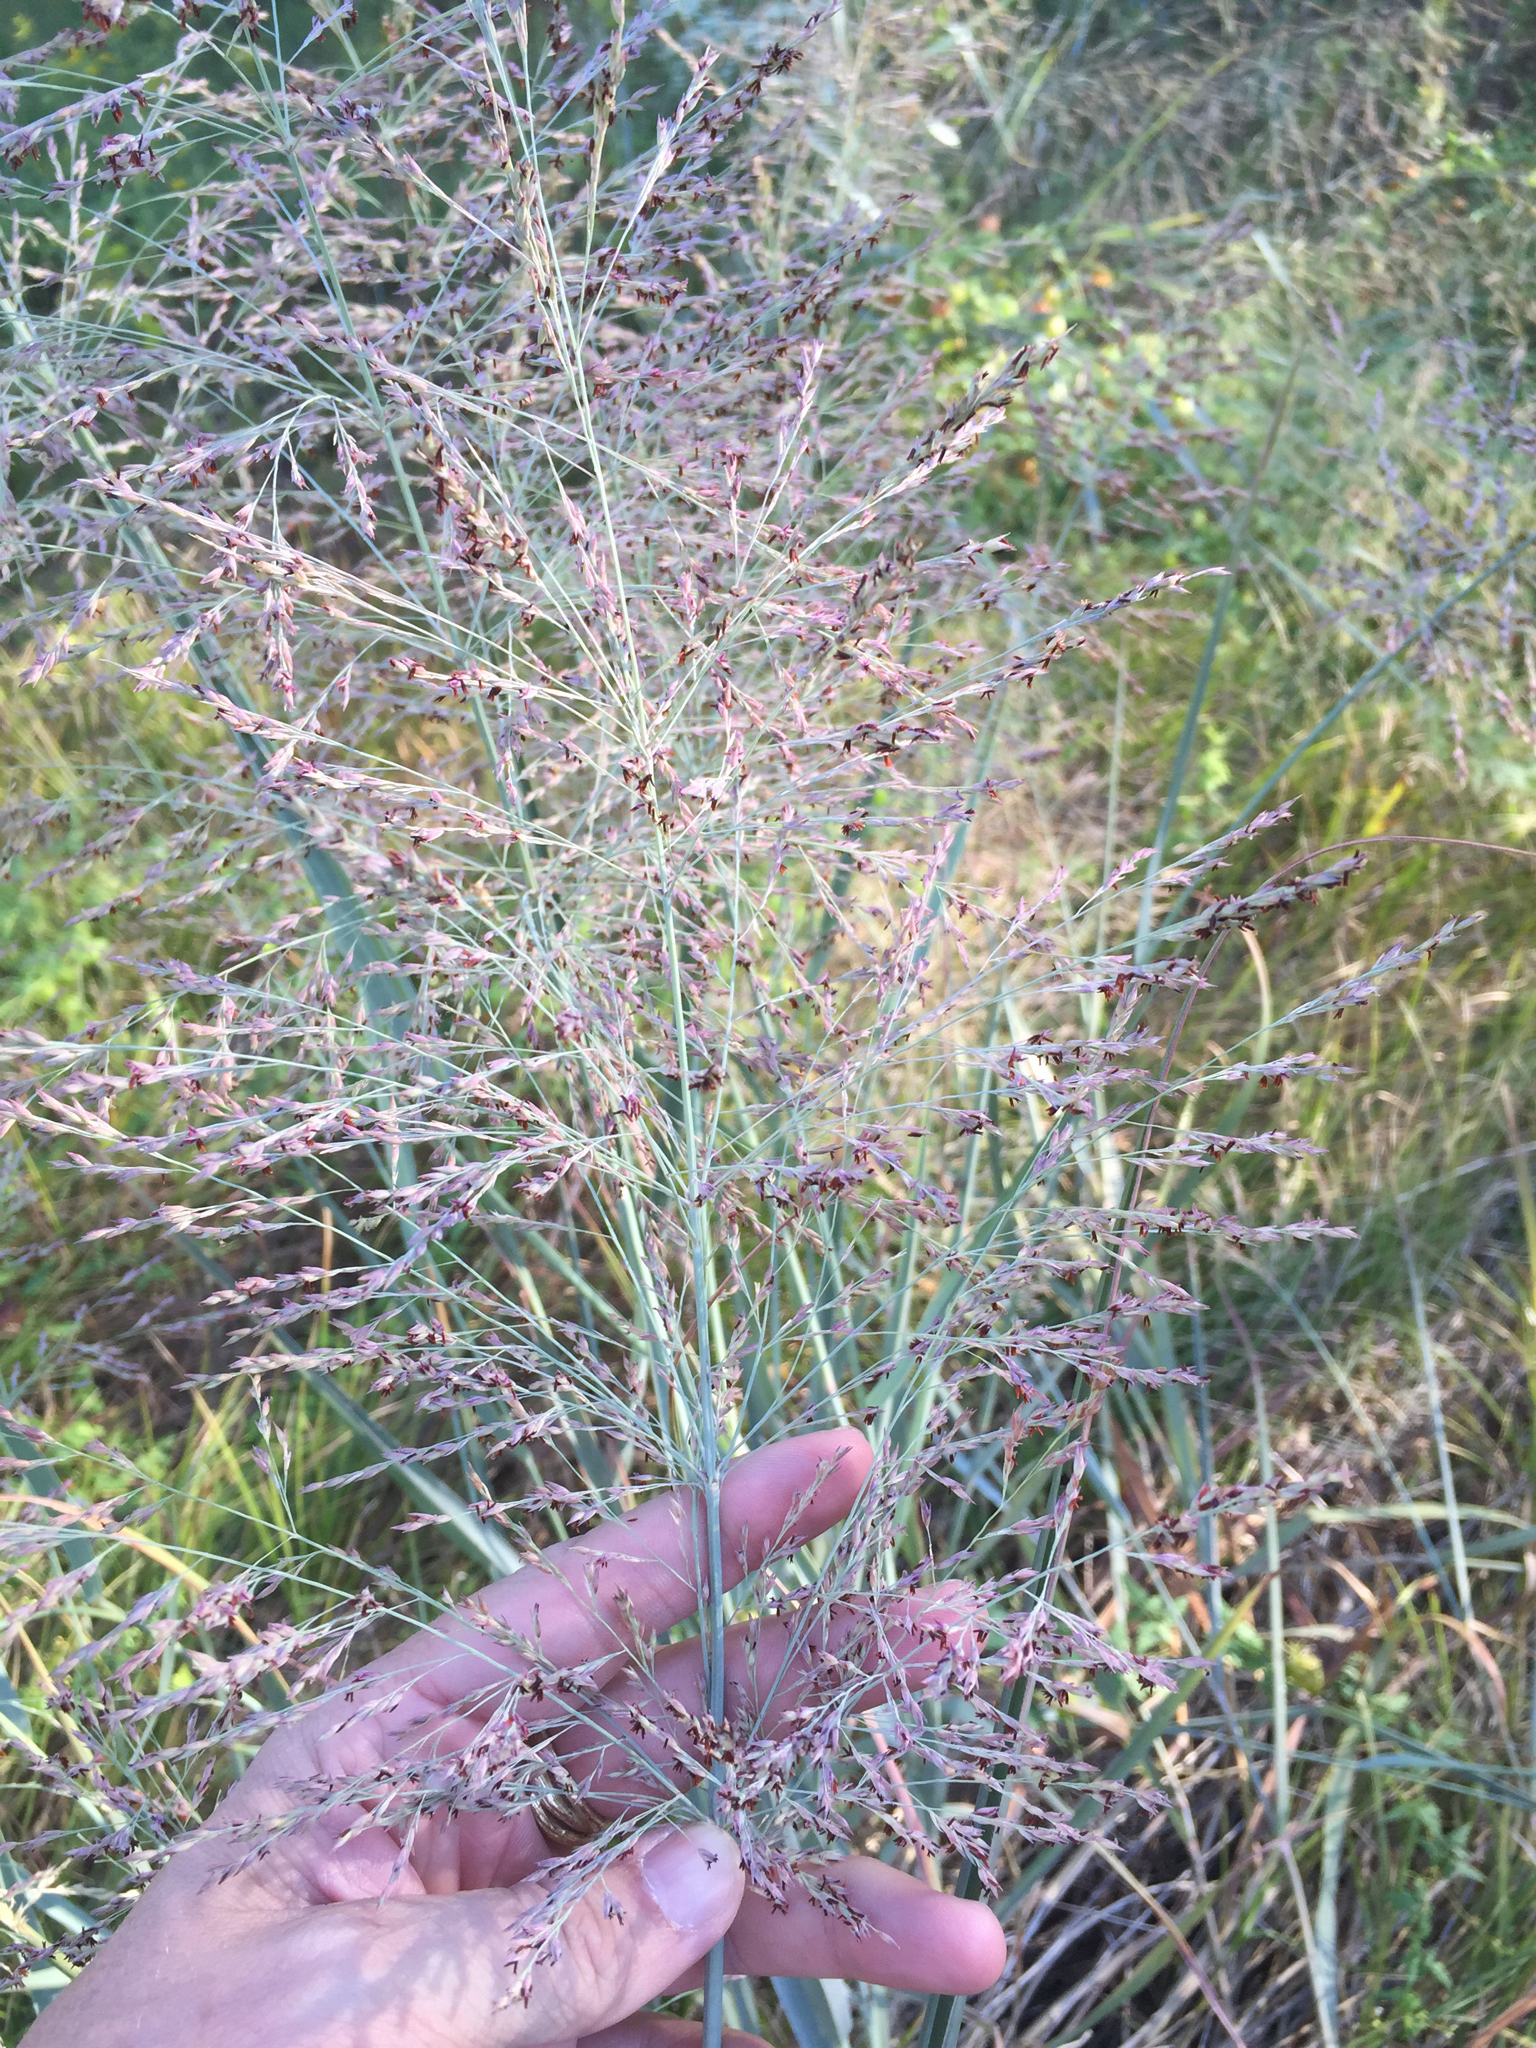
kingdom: Plantae
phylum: Tracheophyta
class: Liliopsida
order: Poales
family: Poaceae
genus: Panicum
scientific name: Panicum virgatum
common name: Switchgrass
